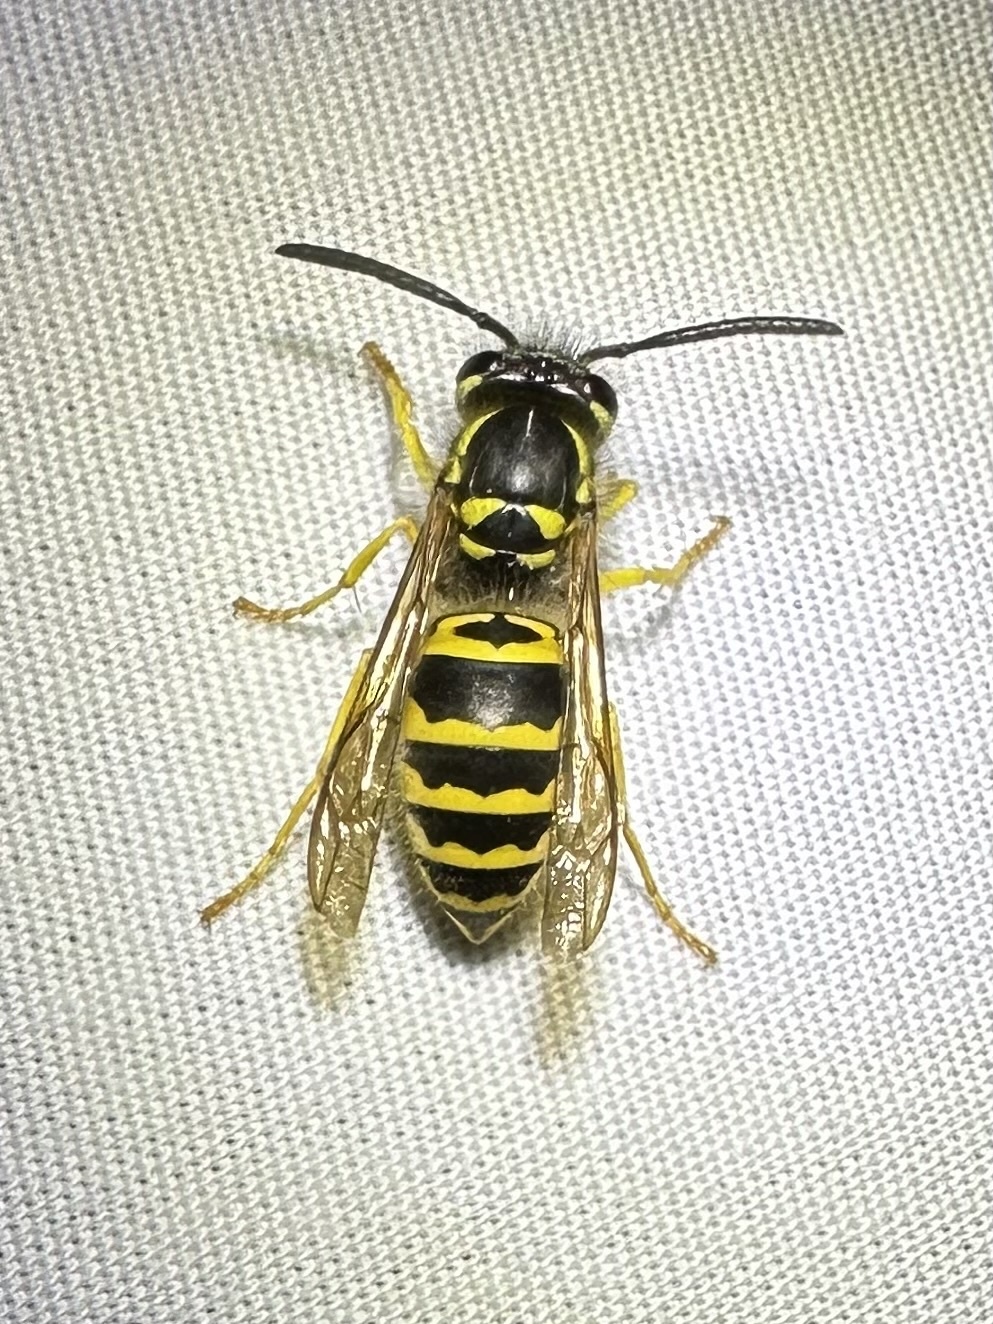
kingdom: Animalia
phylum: Arthropoda
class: Insecta
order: Hymenoptera
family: Vespidae
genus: Vespula
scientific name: Vespula maculifrons
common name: Eastern yellowjacket
